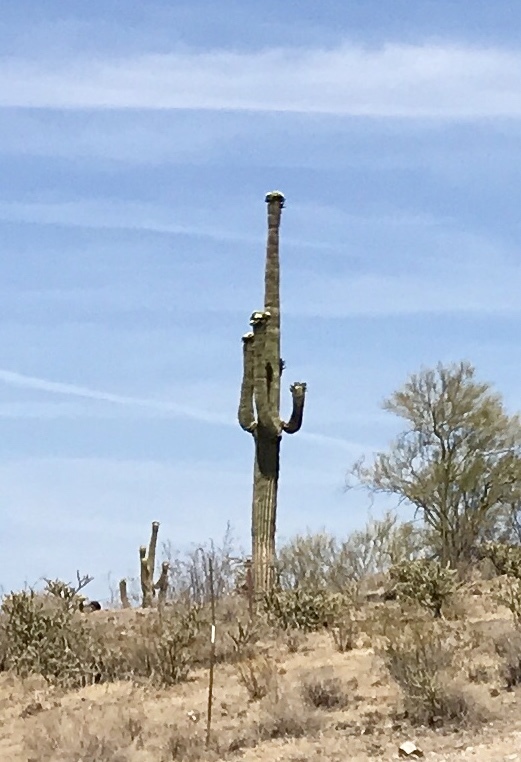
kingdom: Plantae
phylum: Tracheophyta
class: Magnoliopsida
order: Caryophyllales
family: Cactaceae
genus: Carnegiea
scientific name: Carnegiea gigantea
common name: Saguaro
